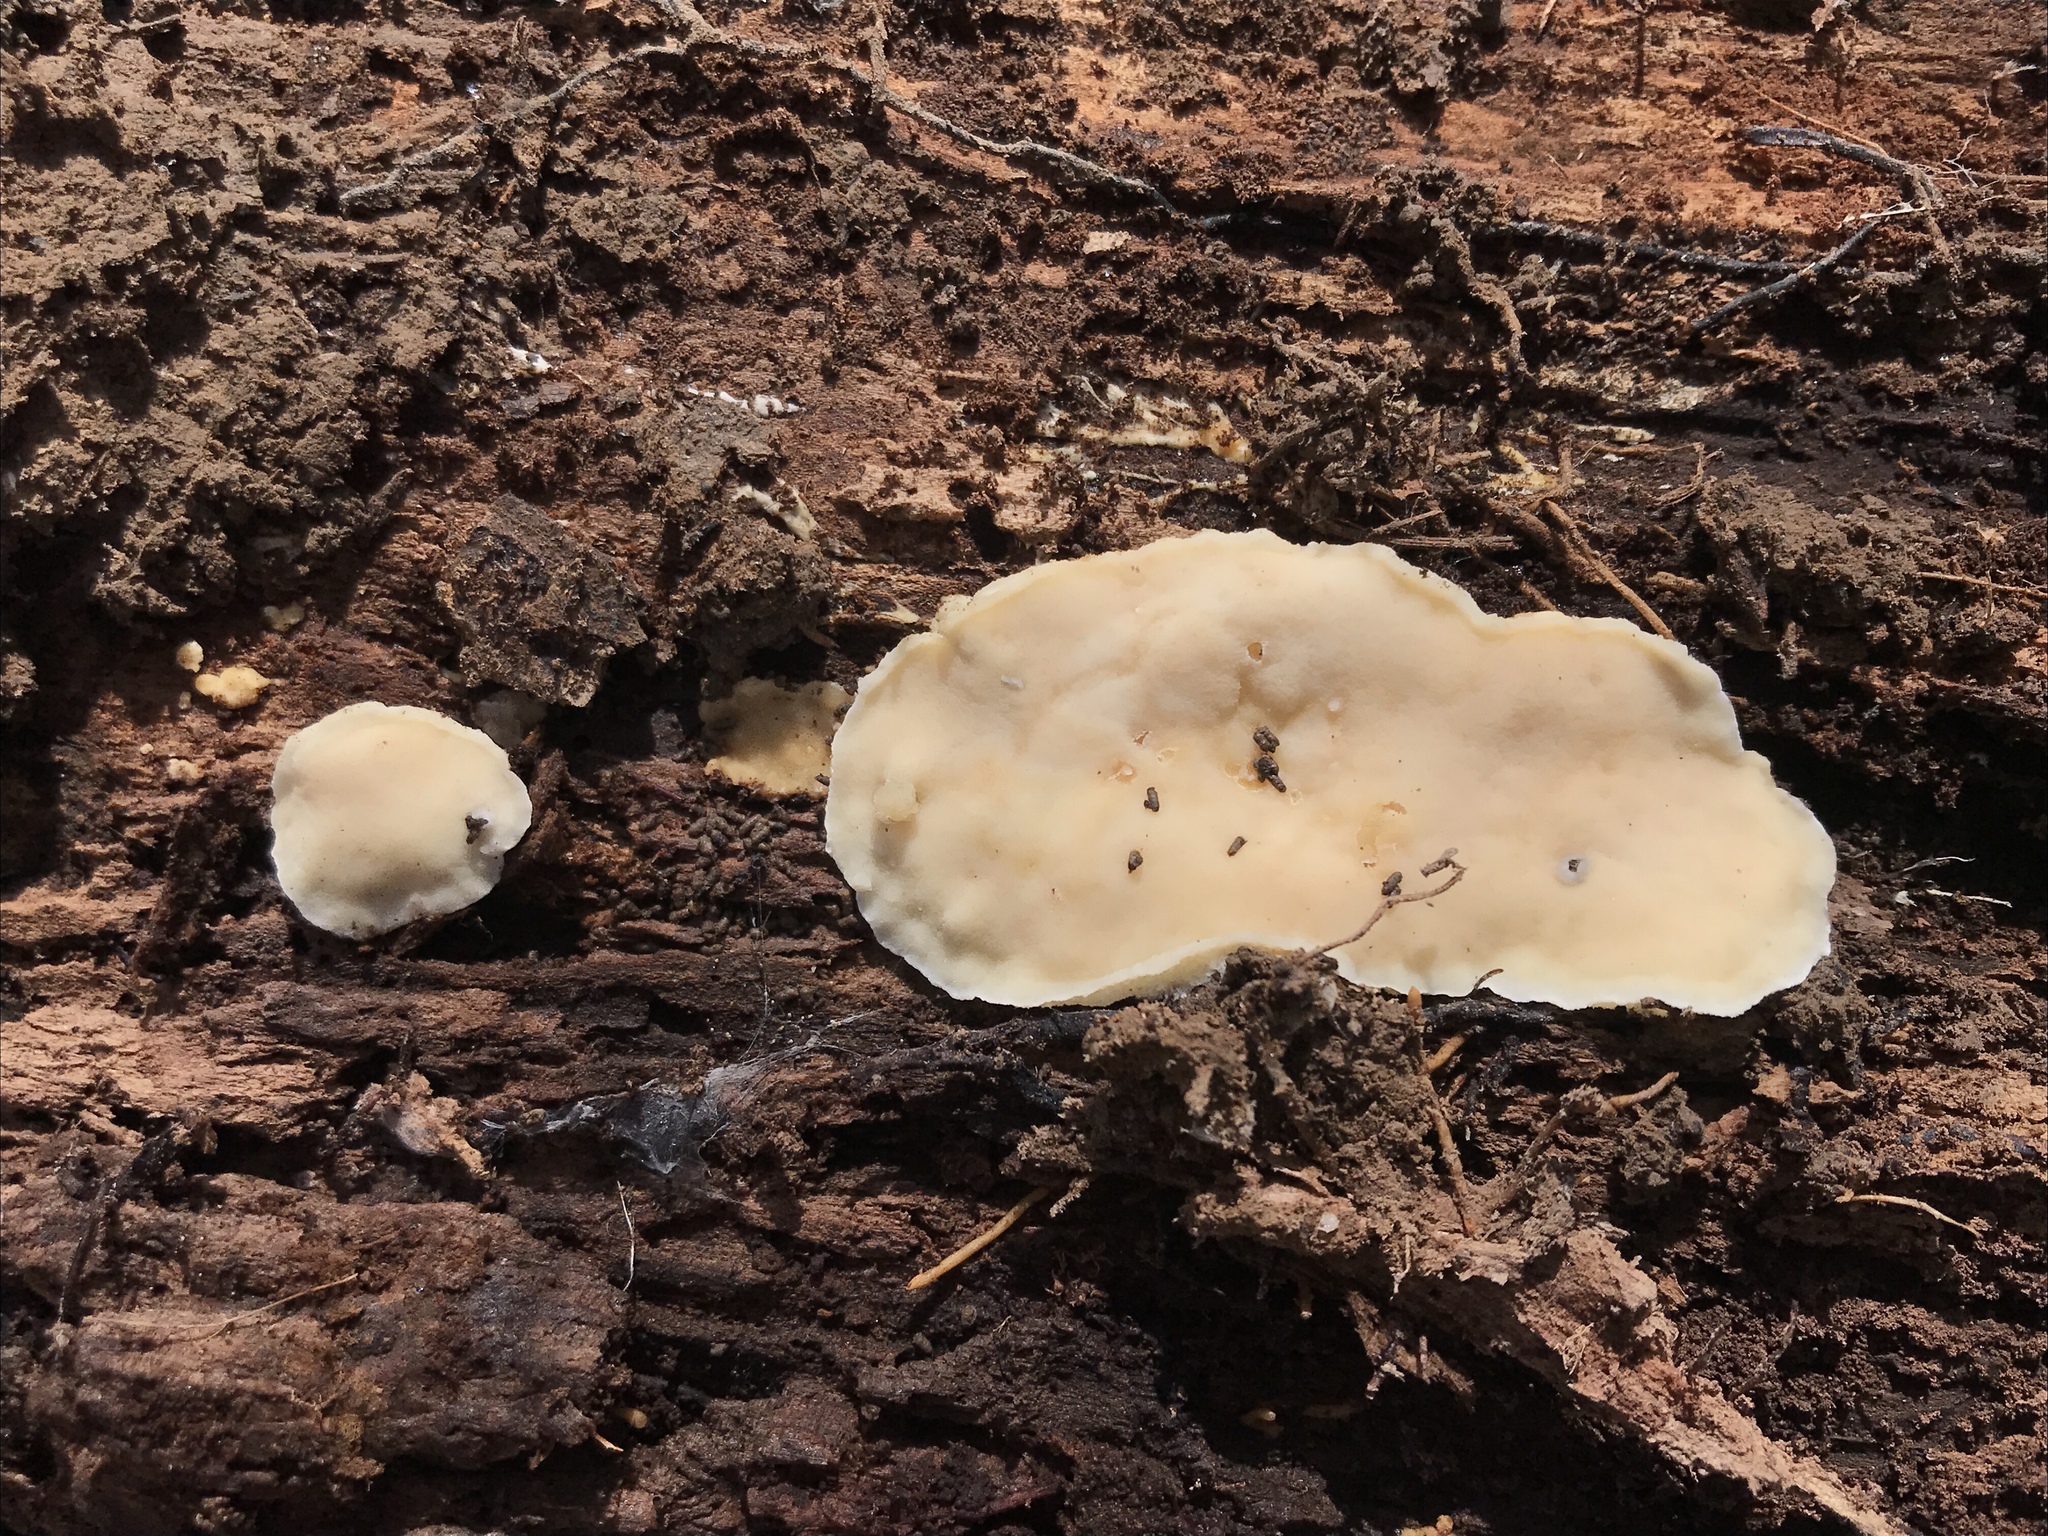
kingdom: Fungi
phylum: Basidiomycota
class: Agaricomycetes
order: Polyporales
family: Meruliaceae
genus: Physisporinus
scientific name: Physisporinus vitreus
